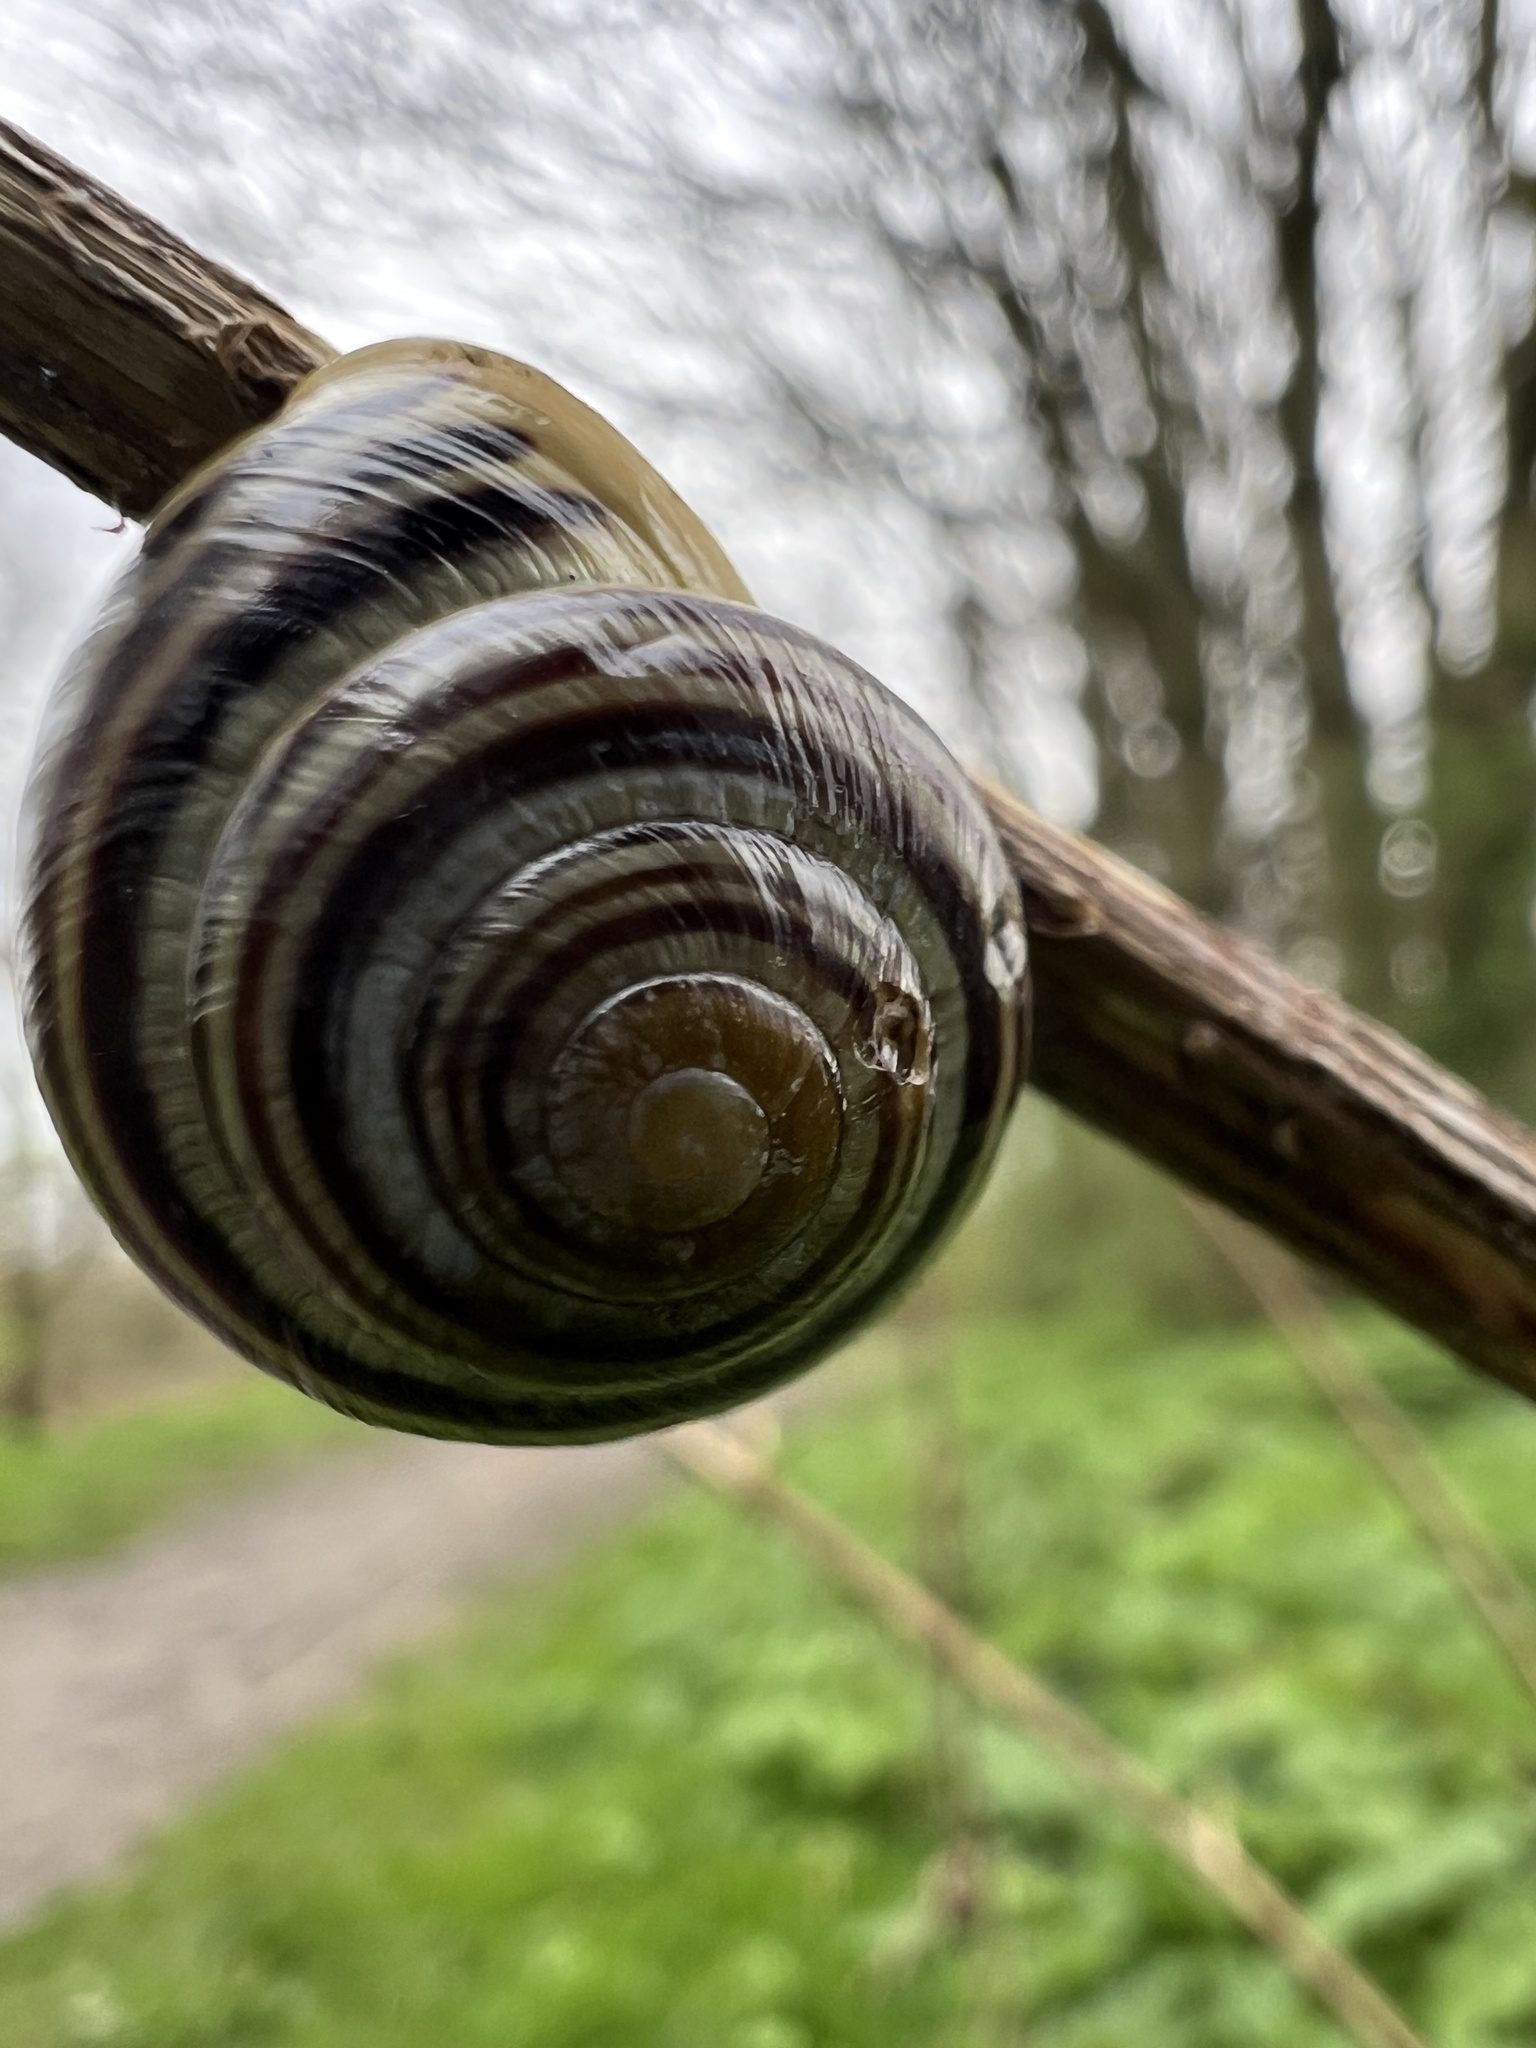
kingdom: Animalia
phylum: Mollusca
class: Gastropoda
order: Stylommatophora
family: Helicidae
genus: Cepaea
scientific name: Cepaea hortensis
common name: White-lip gardensnail
